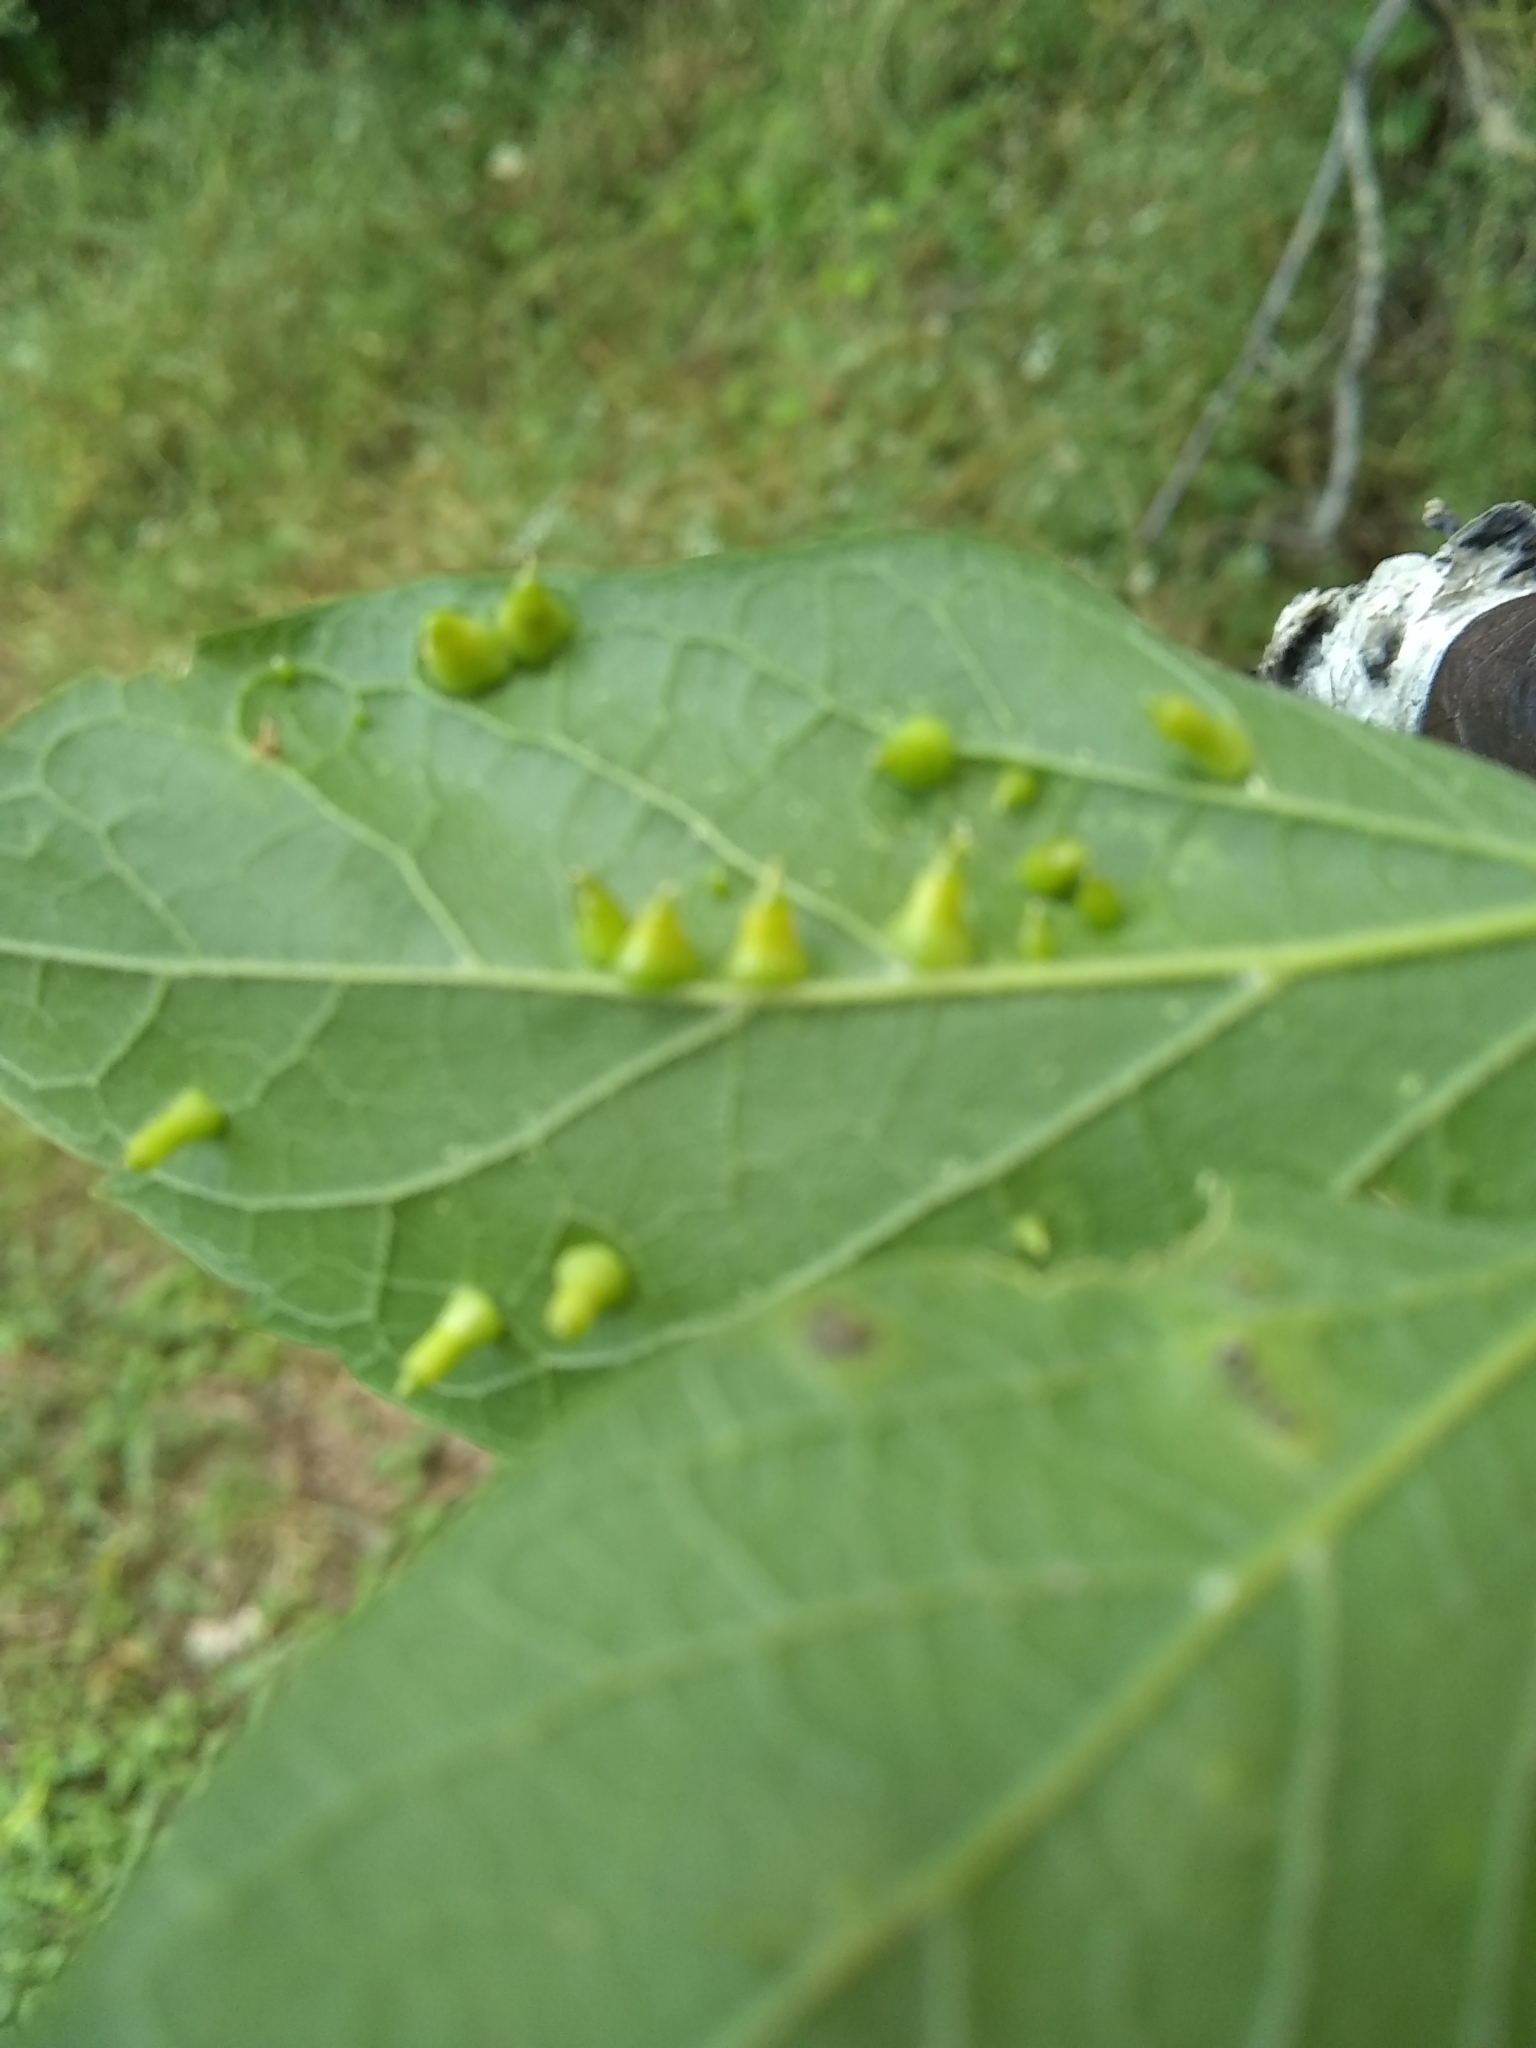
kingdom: Animalia
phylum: Arthropoda
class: Insecta
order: Diptera
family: Cecidomyiidae
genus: Celticecis
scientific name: Celticecis spiniformis
